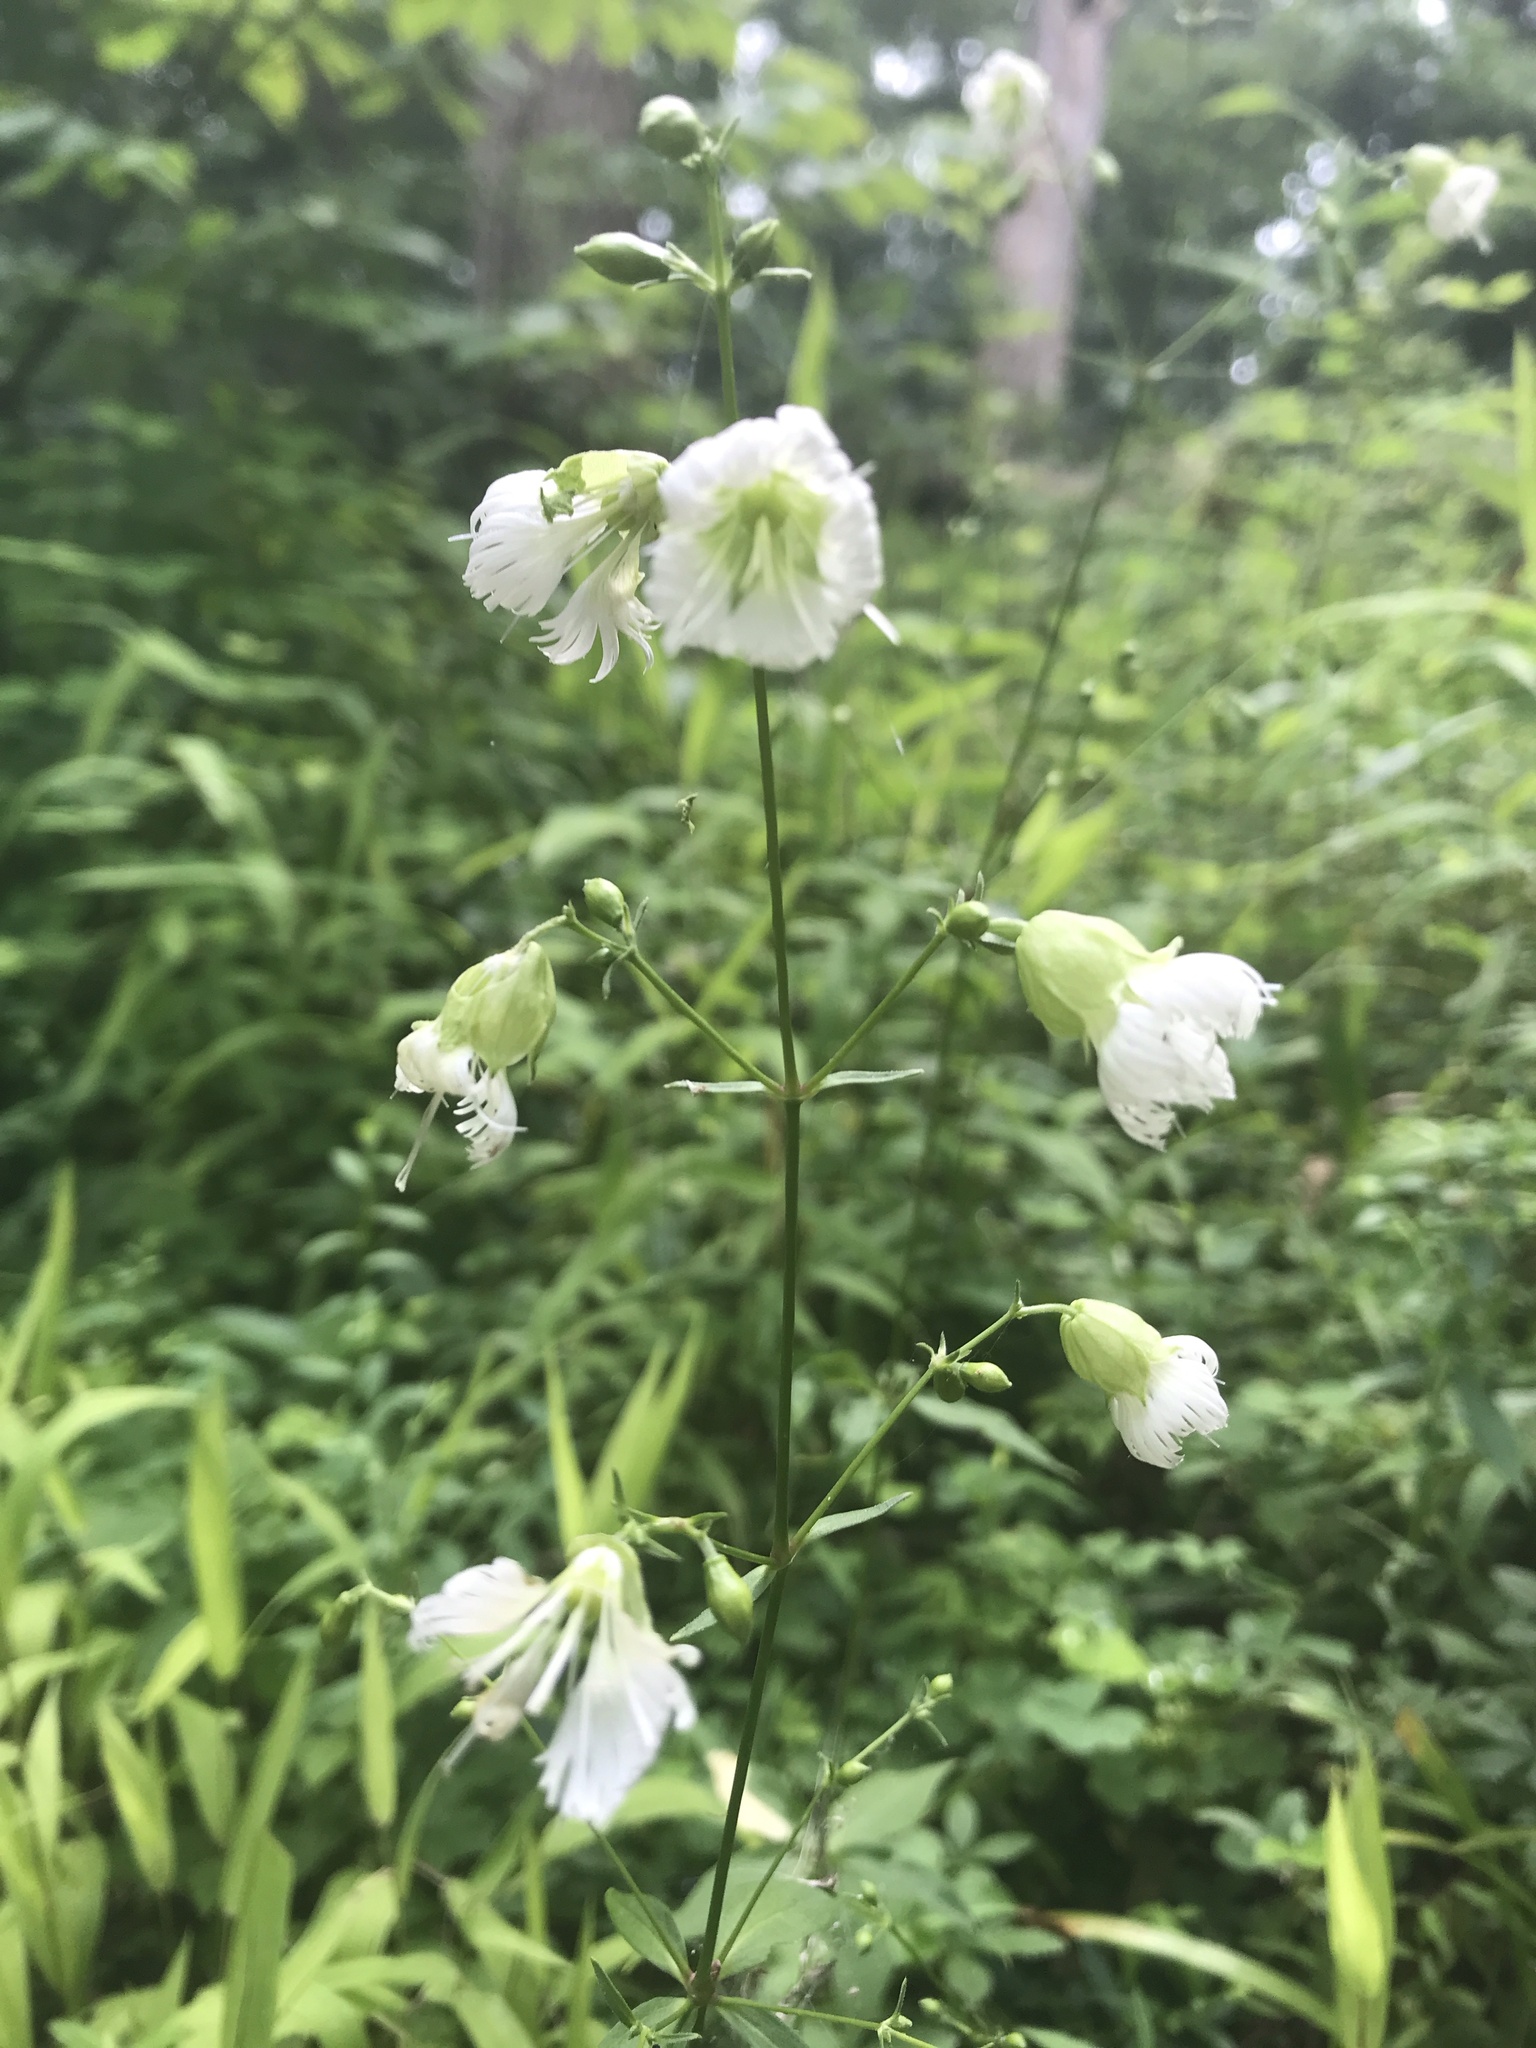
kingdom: Plantae
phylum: Tracheophyta
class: Magnoliopsida
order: Caryophyllales
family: Caryophyllaceae
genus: Silene
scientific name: Silene stellata
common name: Starry campion
